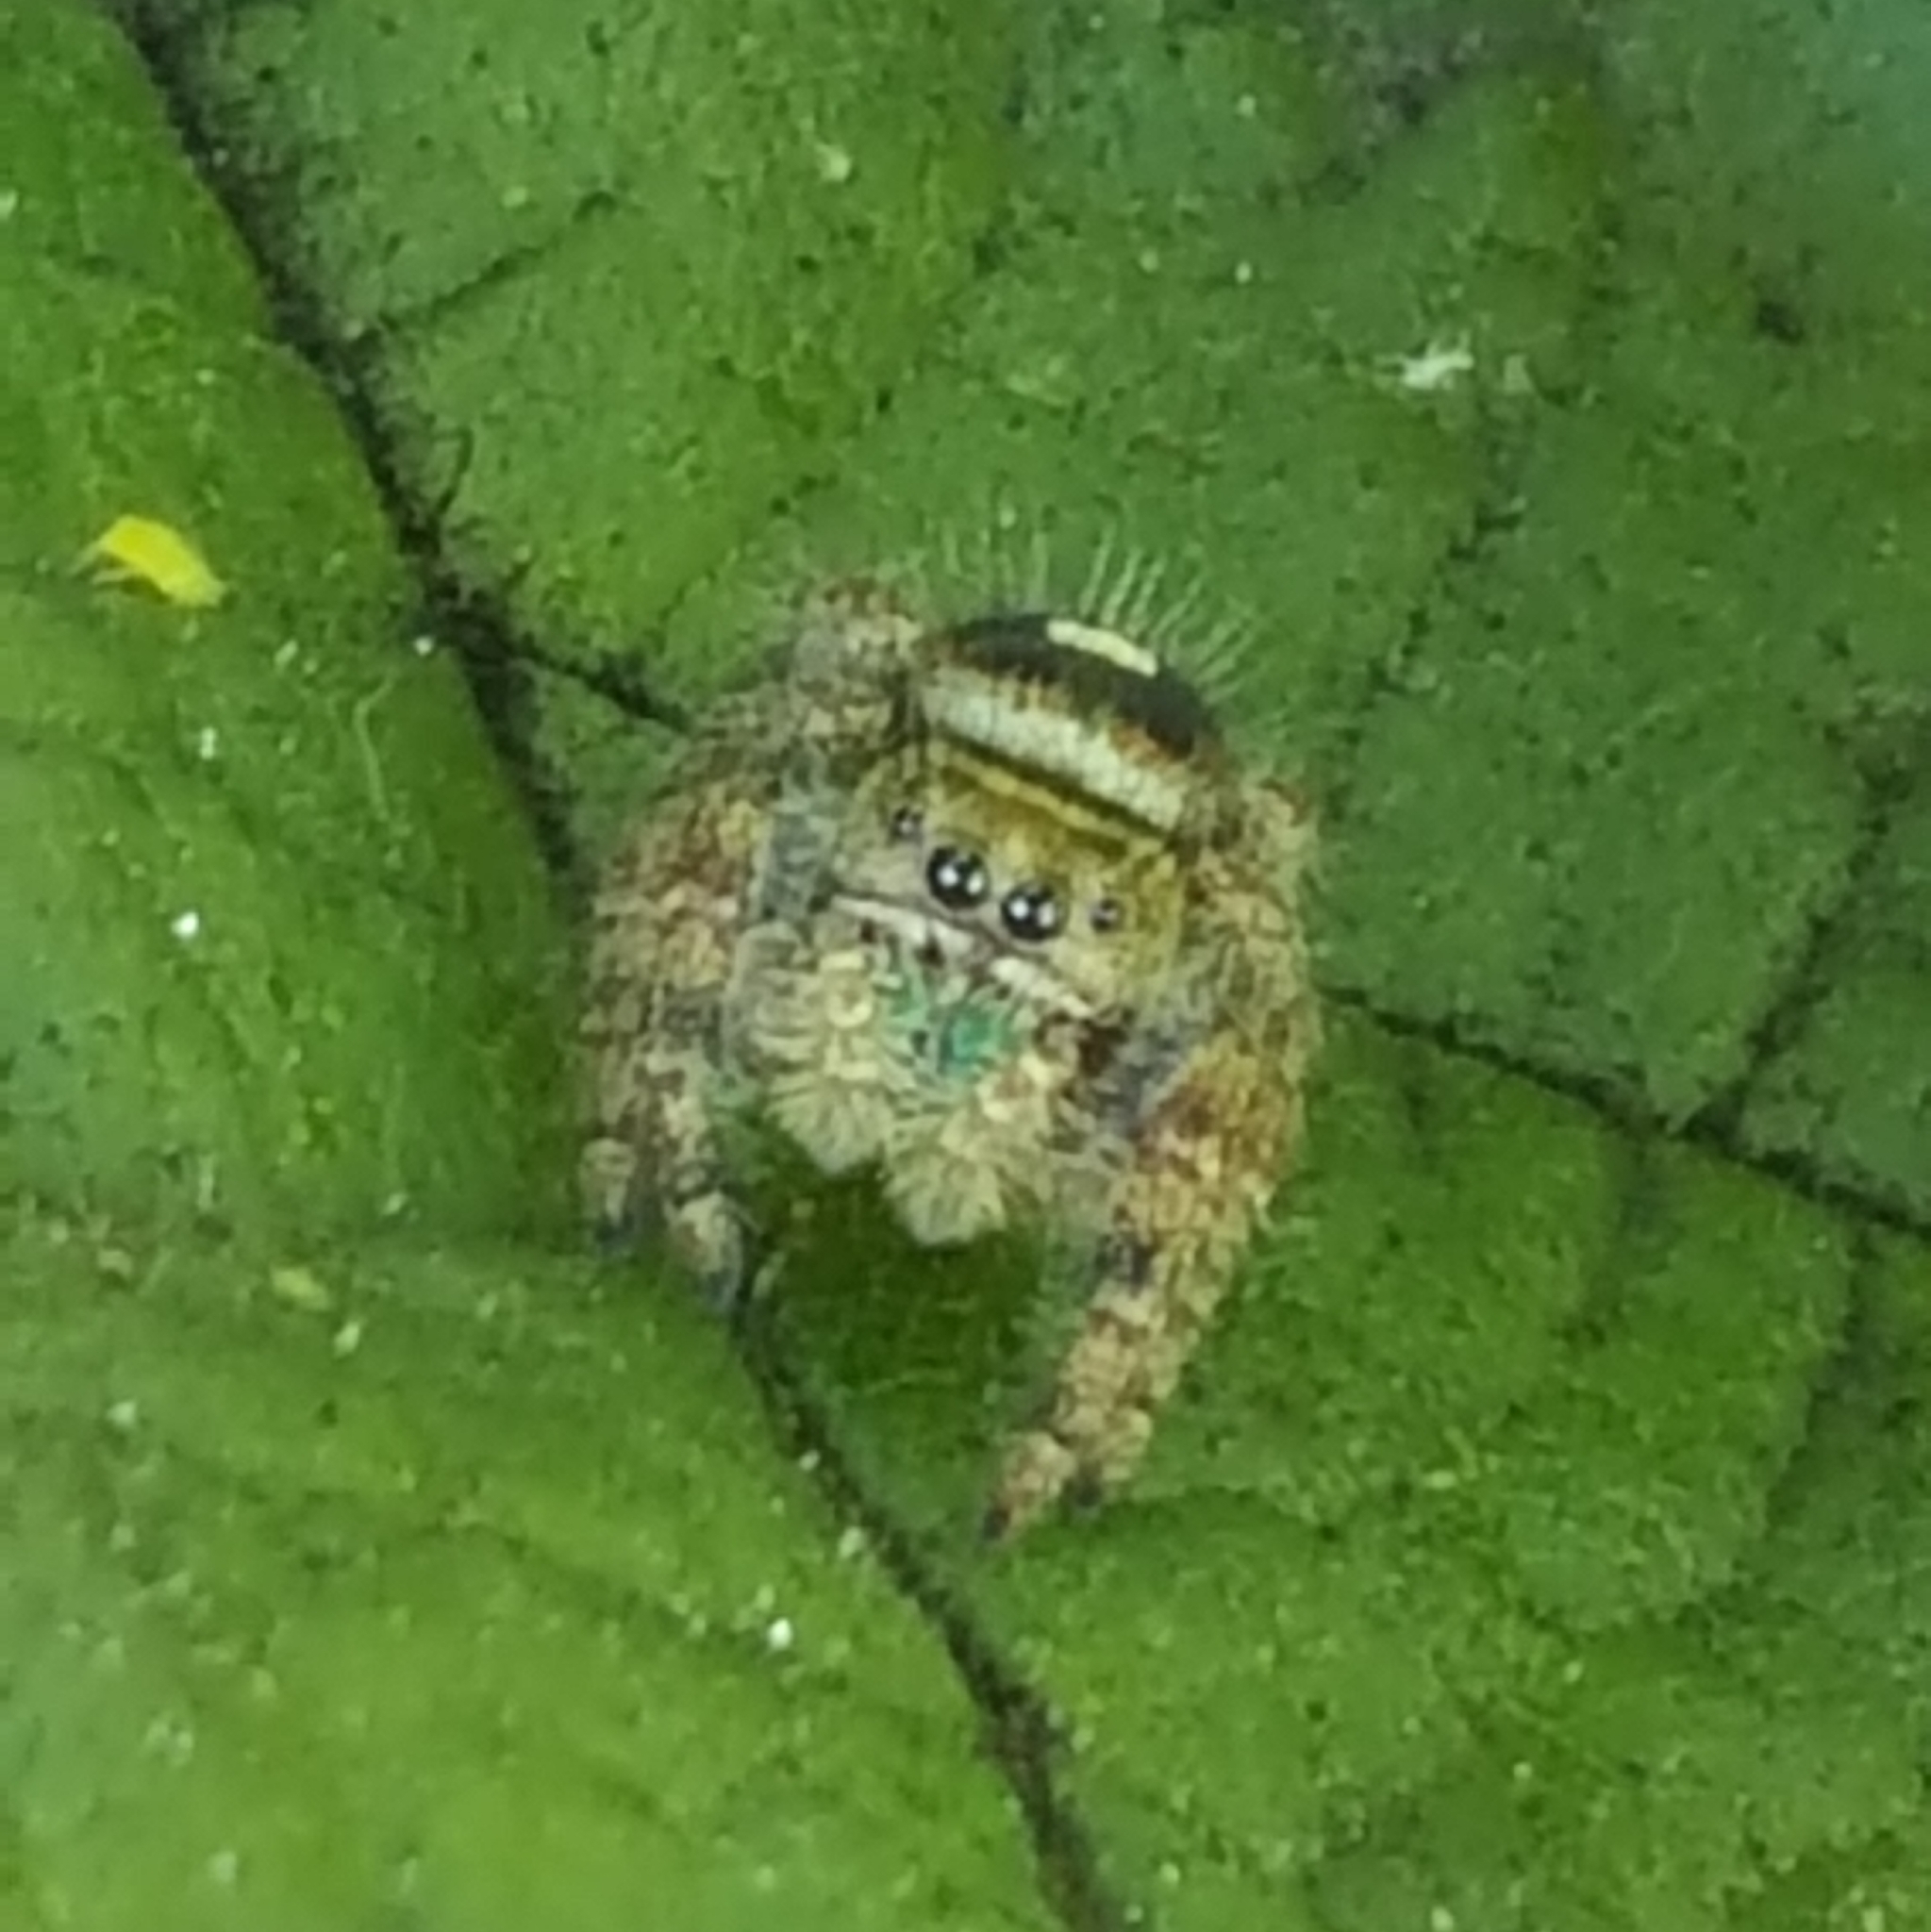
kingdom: Animalia
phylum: Arthropoda
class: Arachnida
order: Araneae
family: Salticidae
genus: Phidippus
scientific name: Phidippus audax
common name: Bold jumper
